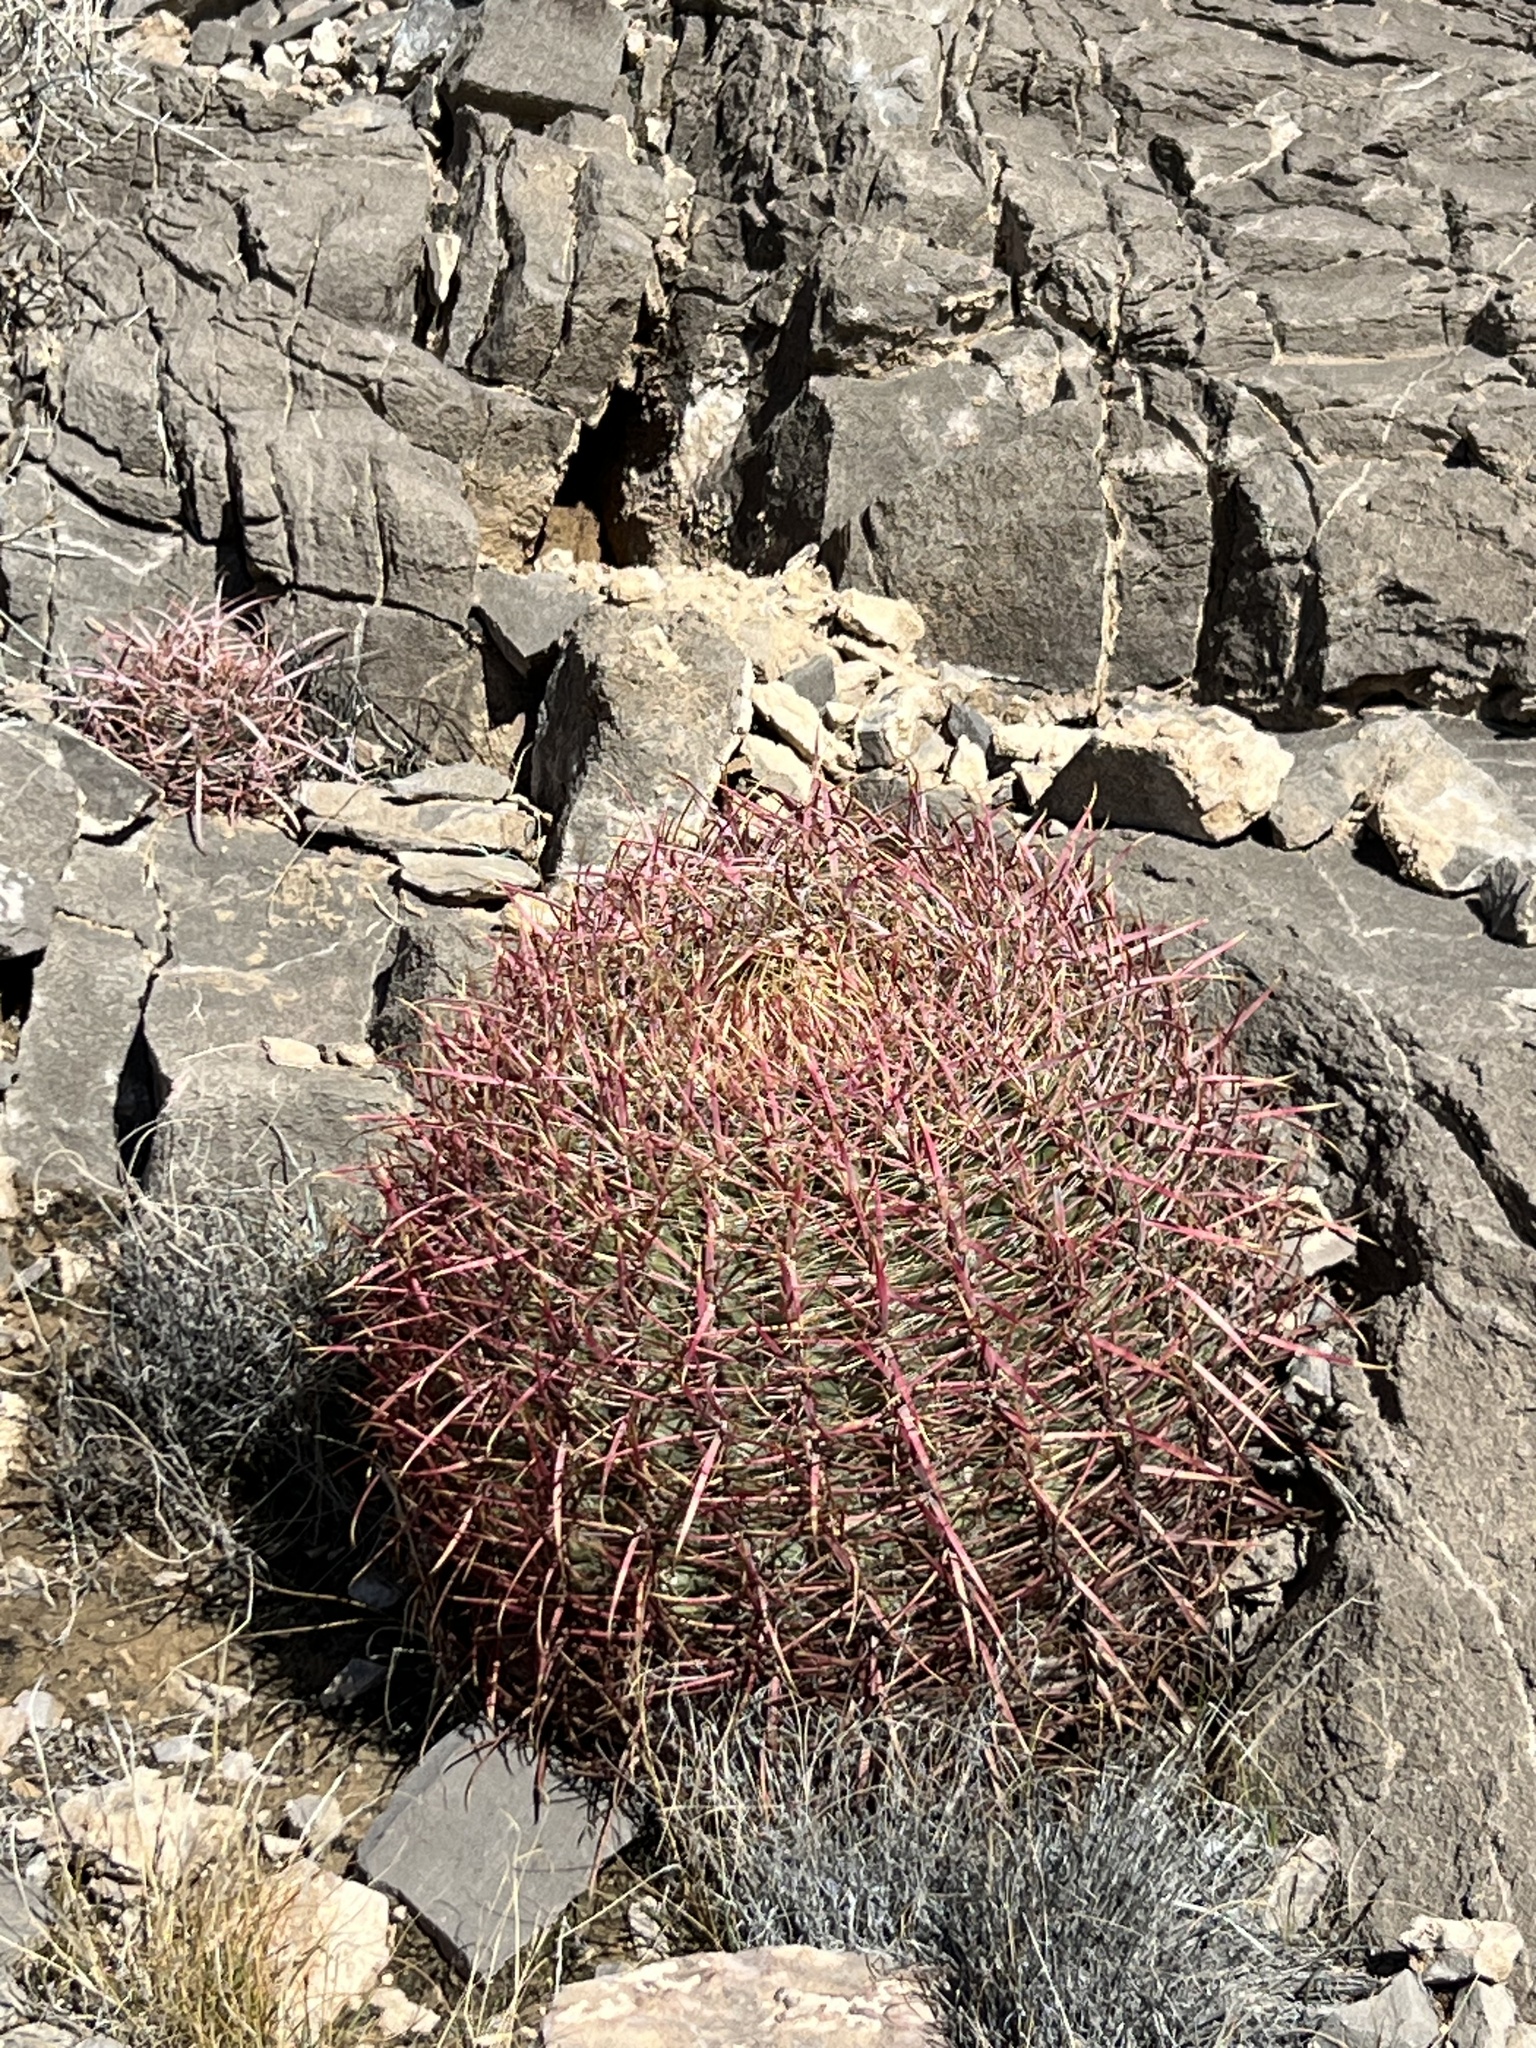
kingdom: Plantae
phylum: Tracheophyta
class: Magnoliopsida
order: Caryophyllales
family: Cactaceae
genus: Ferocactus
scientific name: Ferocactus cylindraceus
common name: California barrel cactus
